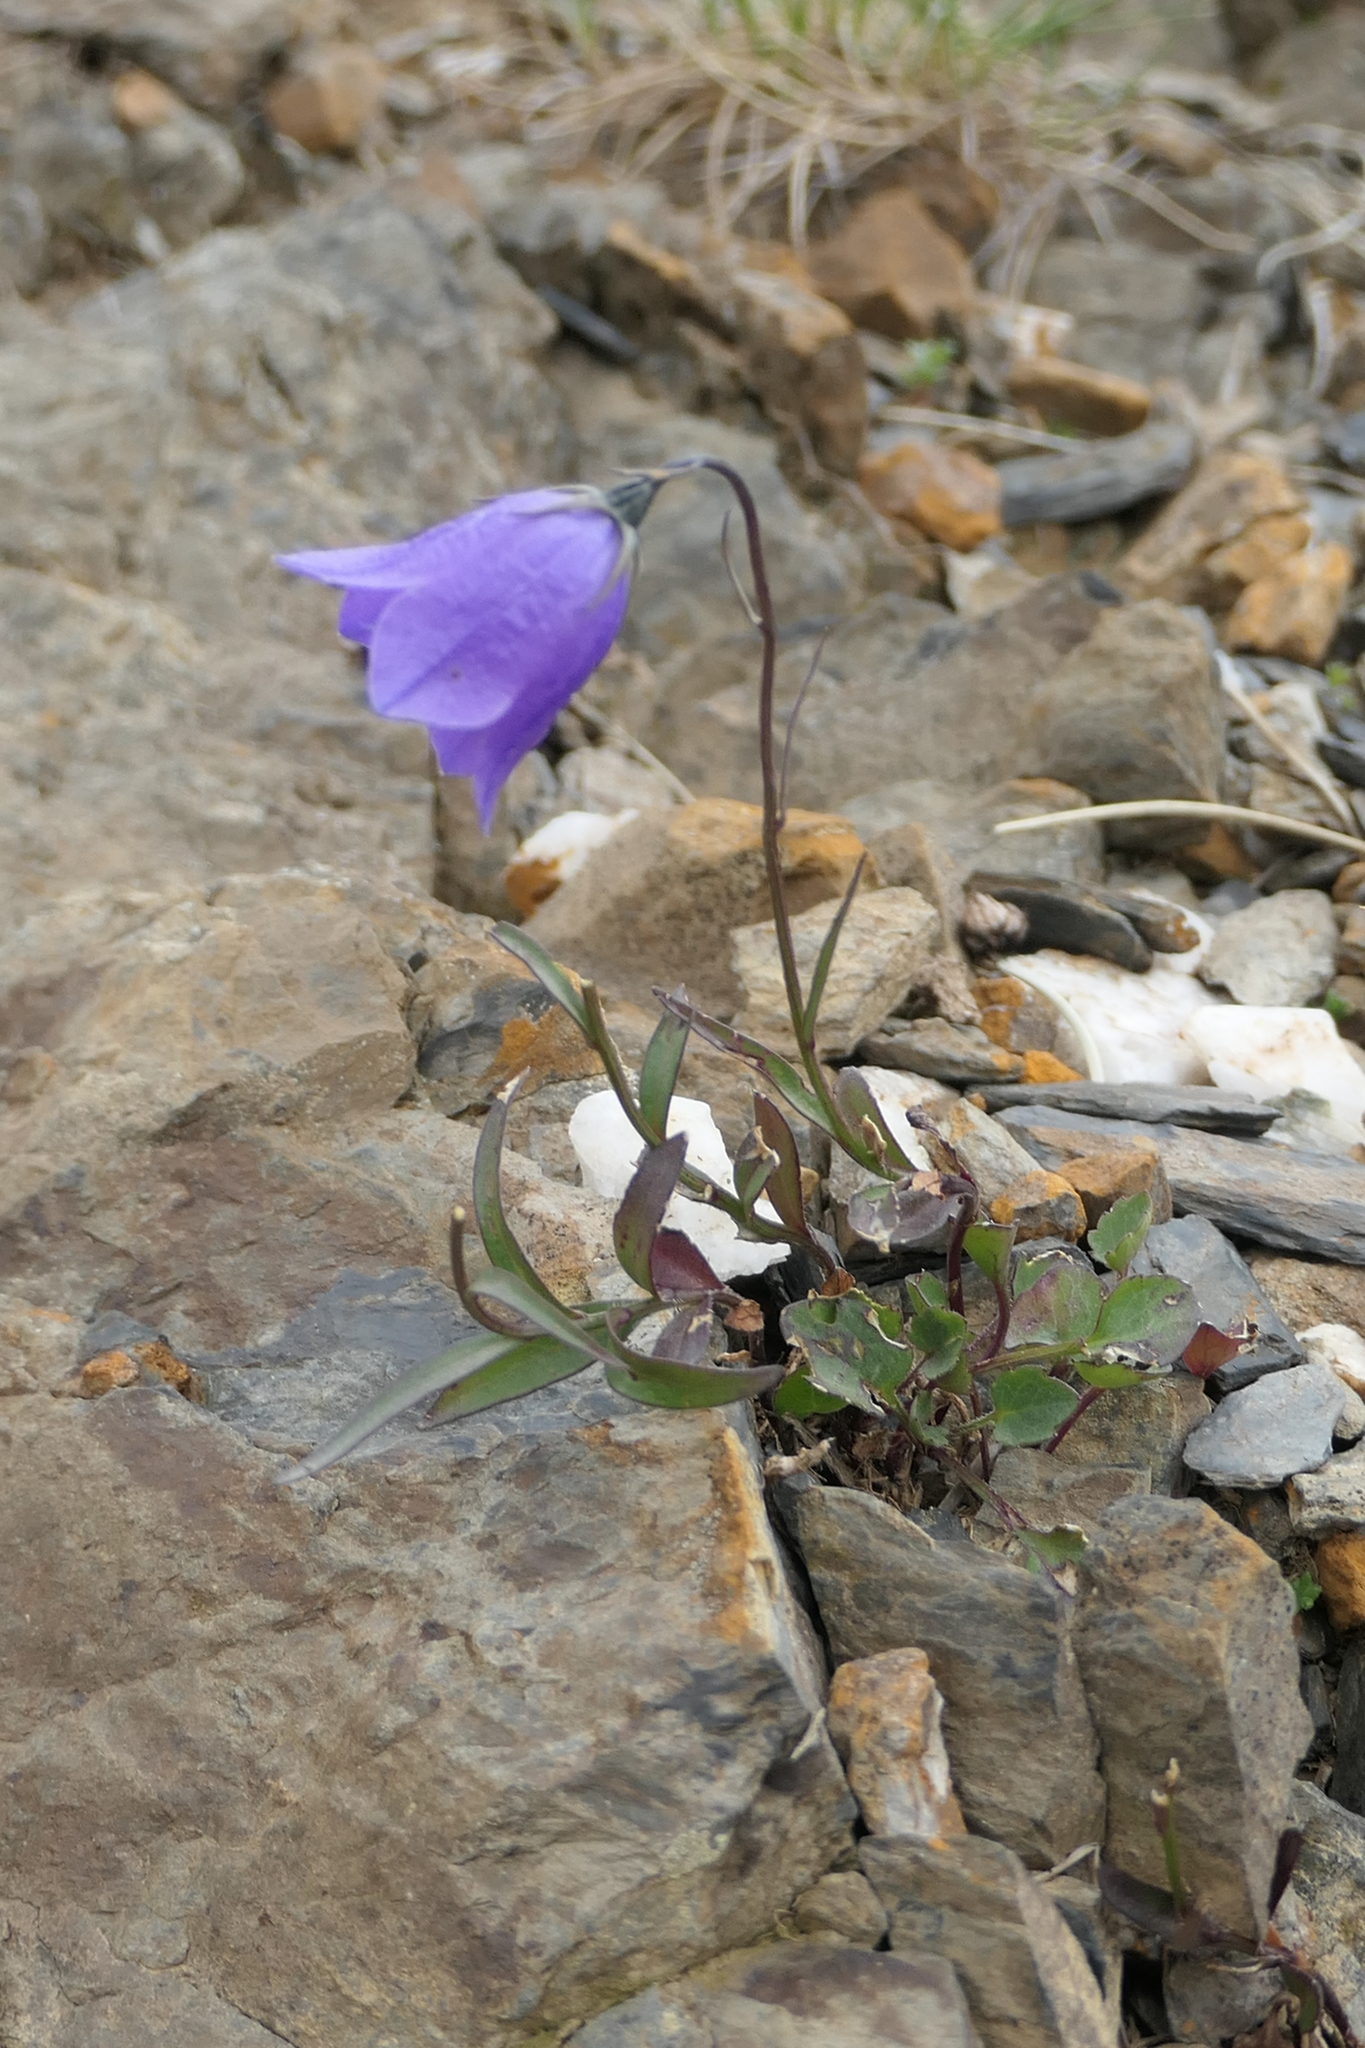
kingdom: Plantae
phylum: Tracheophyta
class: Magnoliopsida
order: Asterales
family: Campanulaceae
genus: Campanula
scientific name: Campanula cochleariifolia
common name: Fairies'-thimbles
